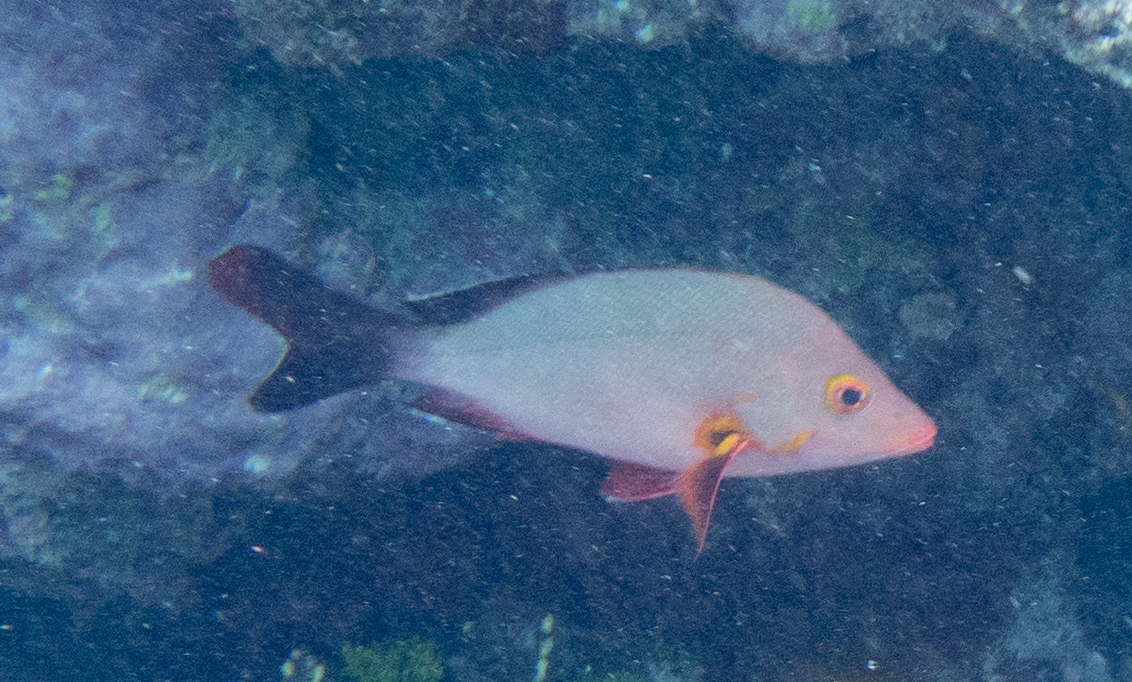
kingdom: Animalia
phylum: Chordata
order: Perciformes
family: Lutjanidae
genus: Lutjanus
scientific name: Lutjanus gibbus
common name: Humpback snapper
